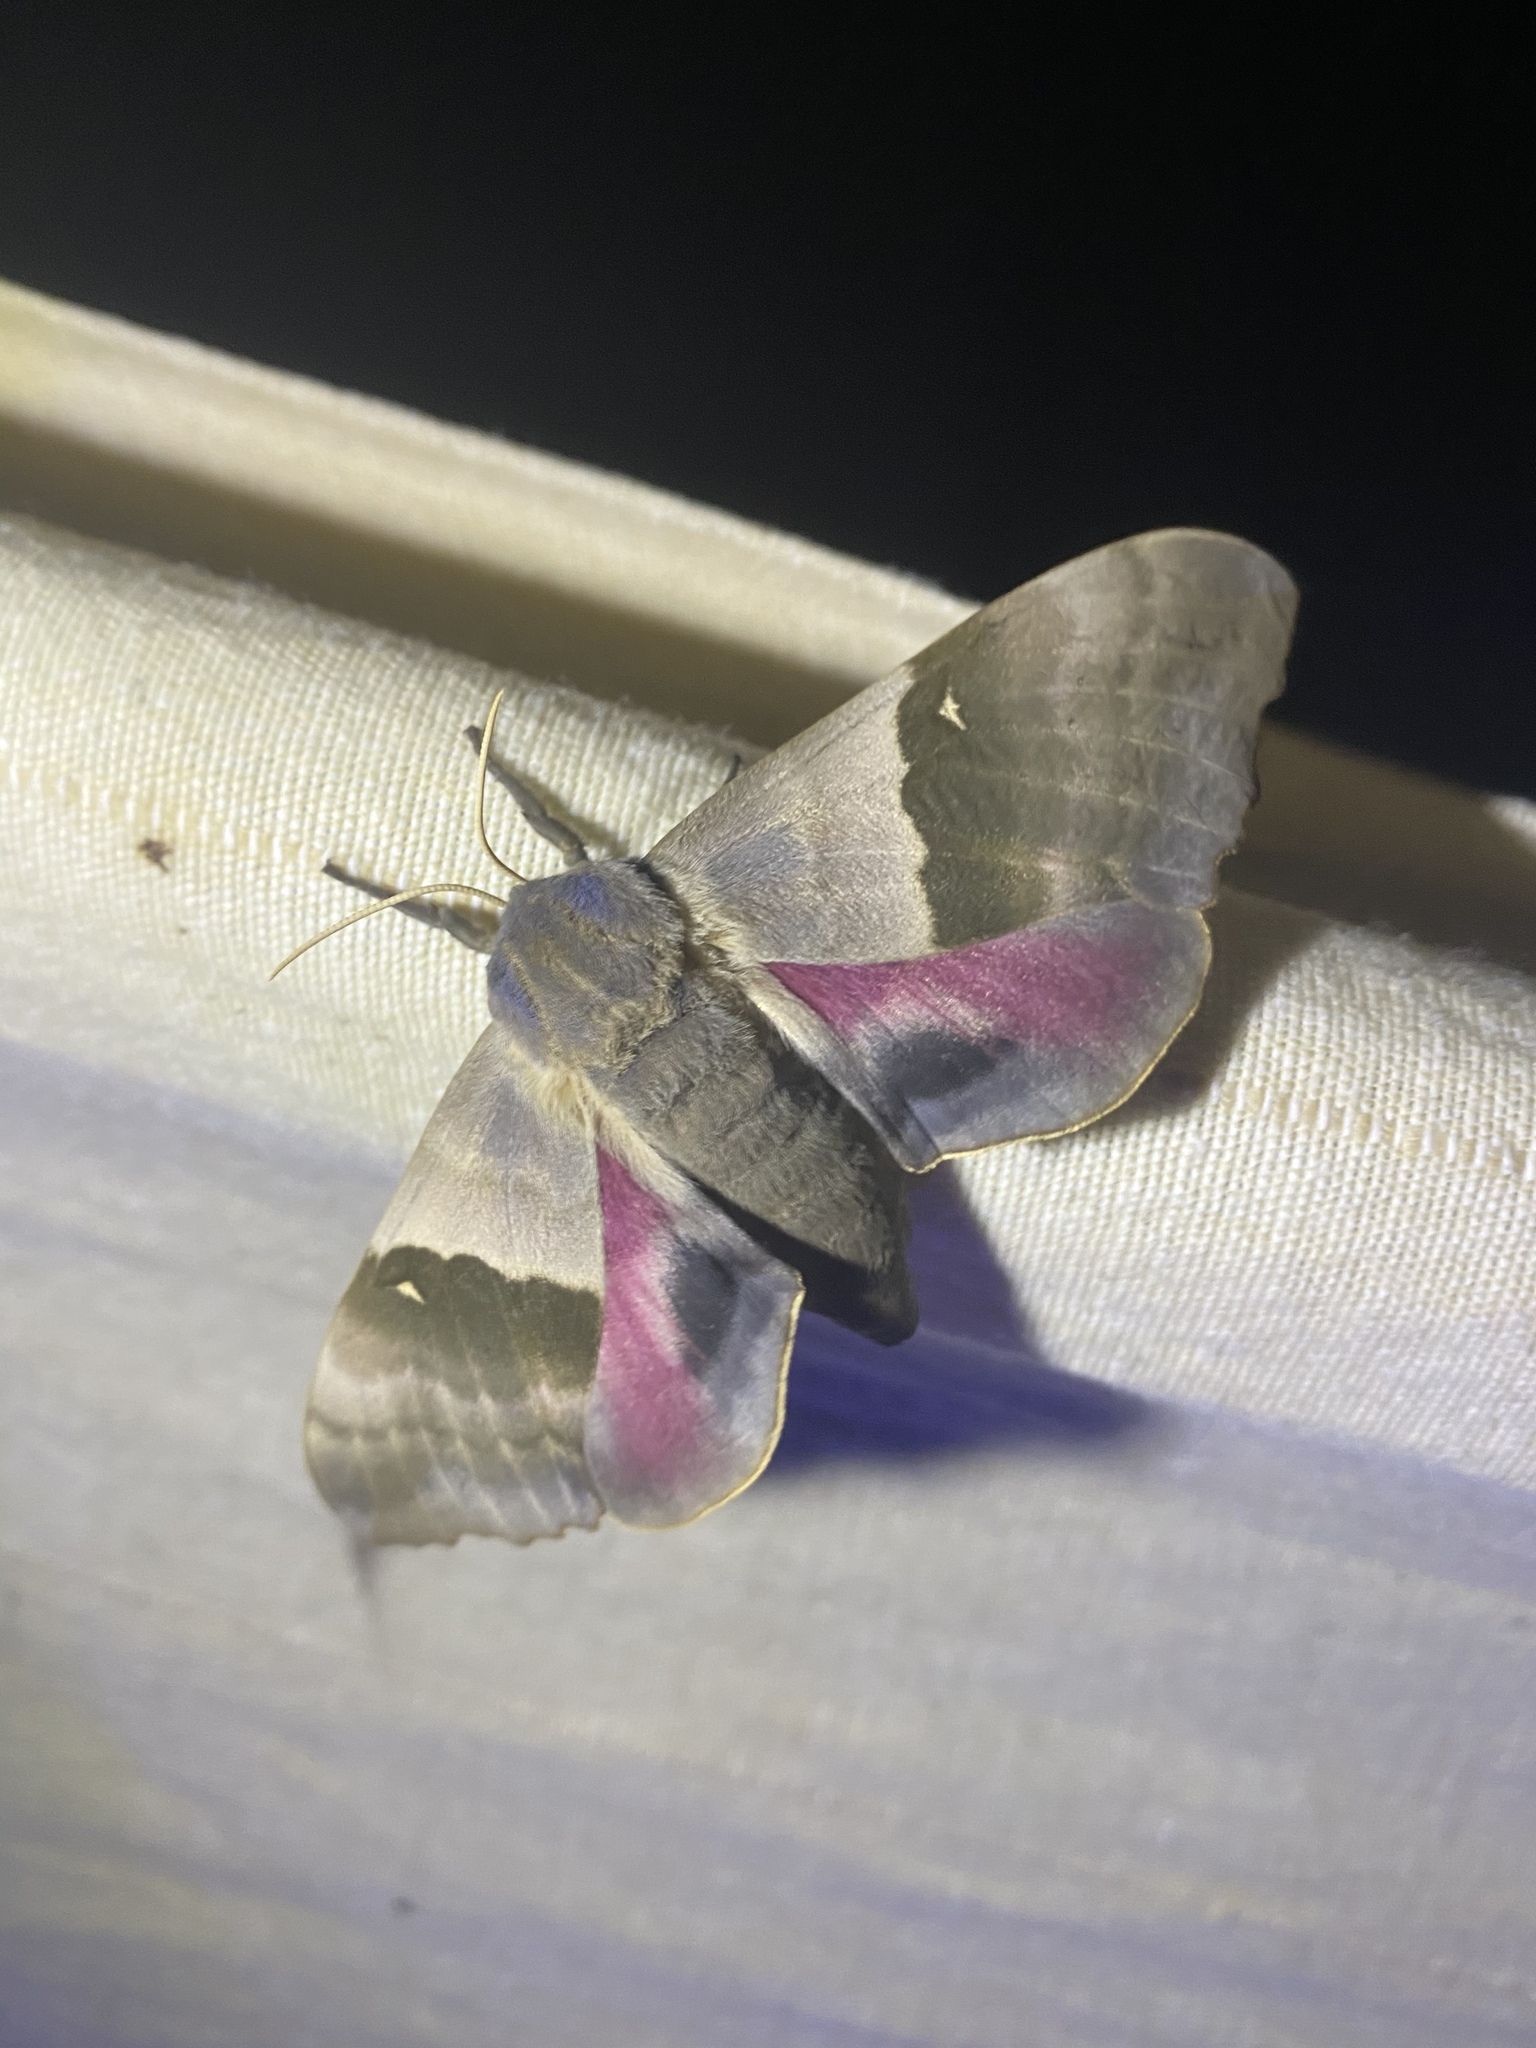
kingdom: Animalia
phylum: Arthropoda
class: Insecta
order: Lepidoptera
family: Sphingidae
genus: Pachysphinx
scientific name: Pachysphinx modesta
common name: Big poplar sphinx
